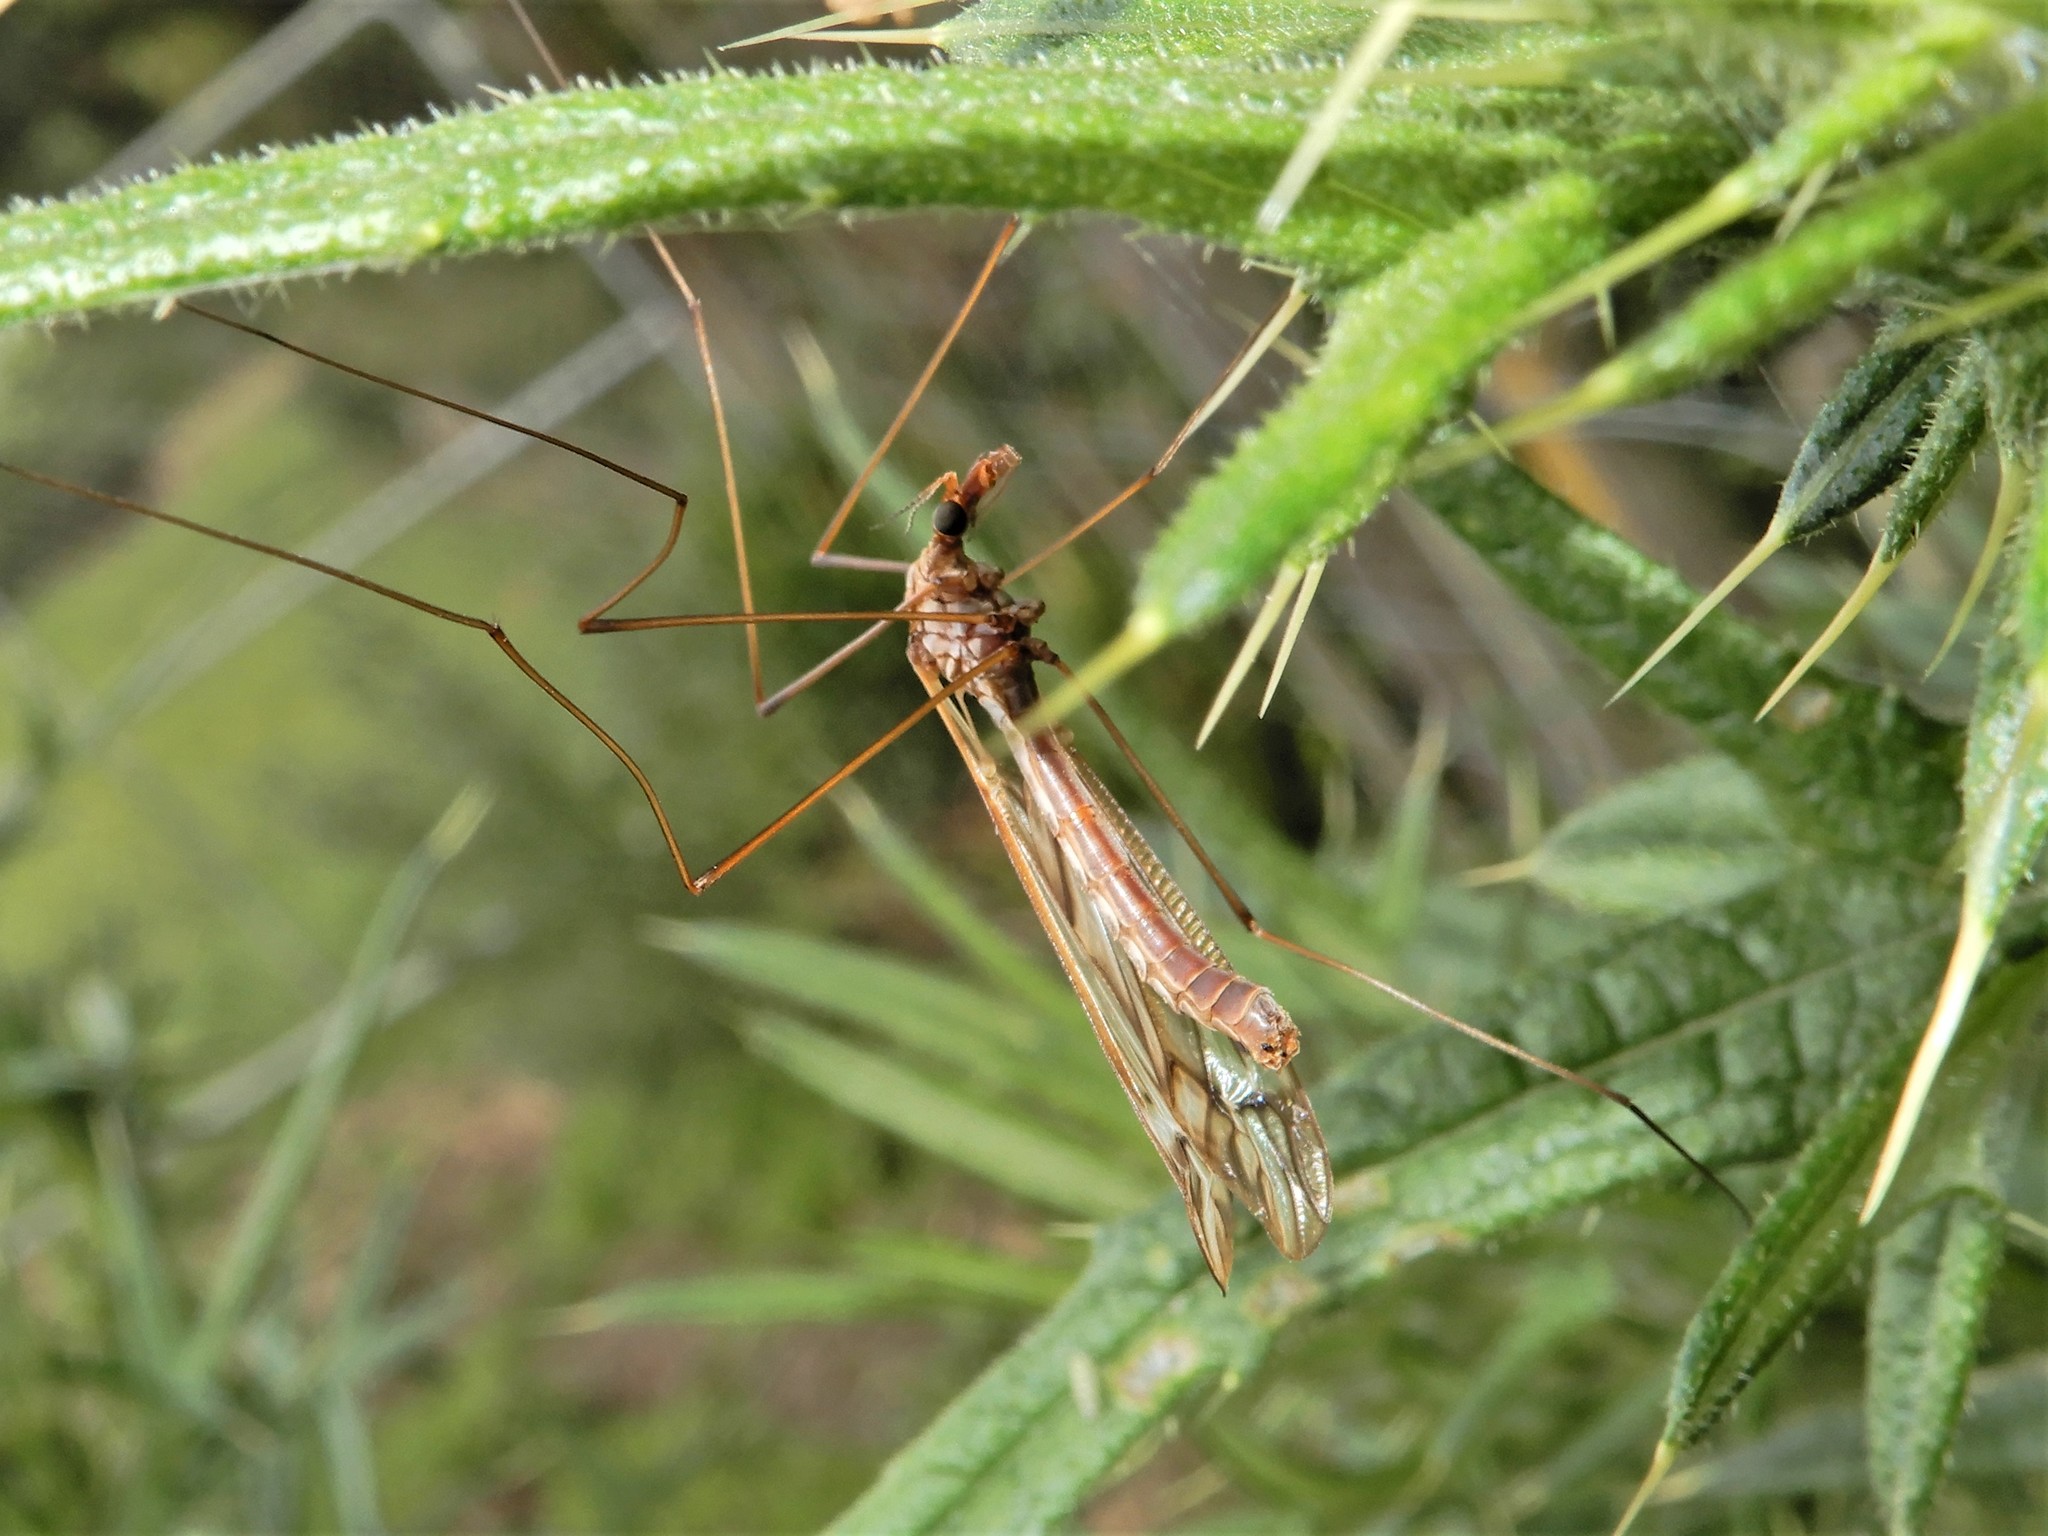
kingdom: Animalia
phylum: Arthropoda
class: Insecta
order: Diptera
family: Tipulidae
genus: Zelandotipula
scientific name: Zelandotipula fulva
